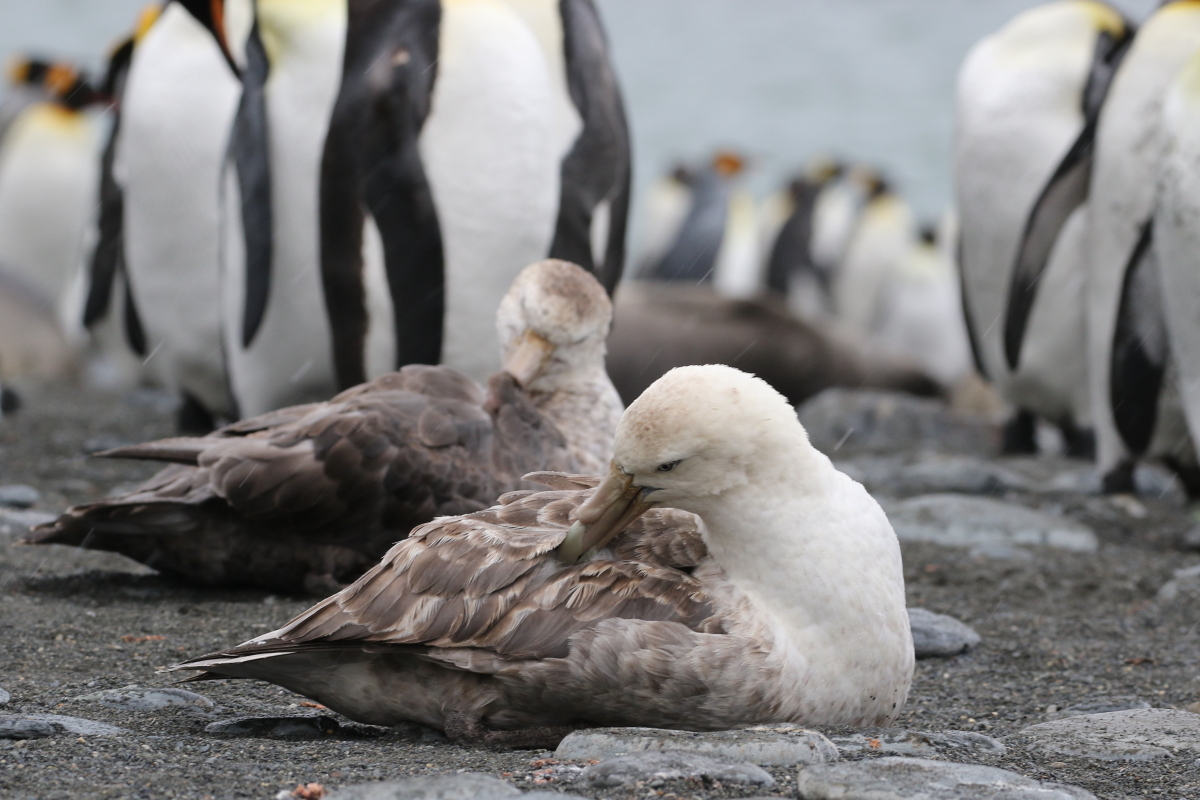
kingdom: Animalia
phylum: Chordata
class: Aves
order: Procellariiformes
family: Procellariidae
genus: Macronectes
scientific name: Macronectes giganteus
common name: Southern giant petrel
